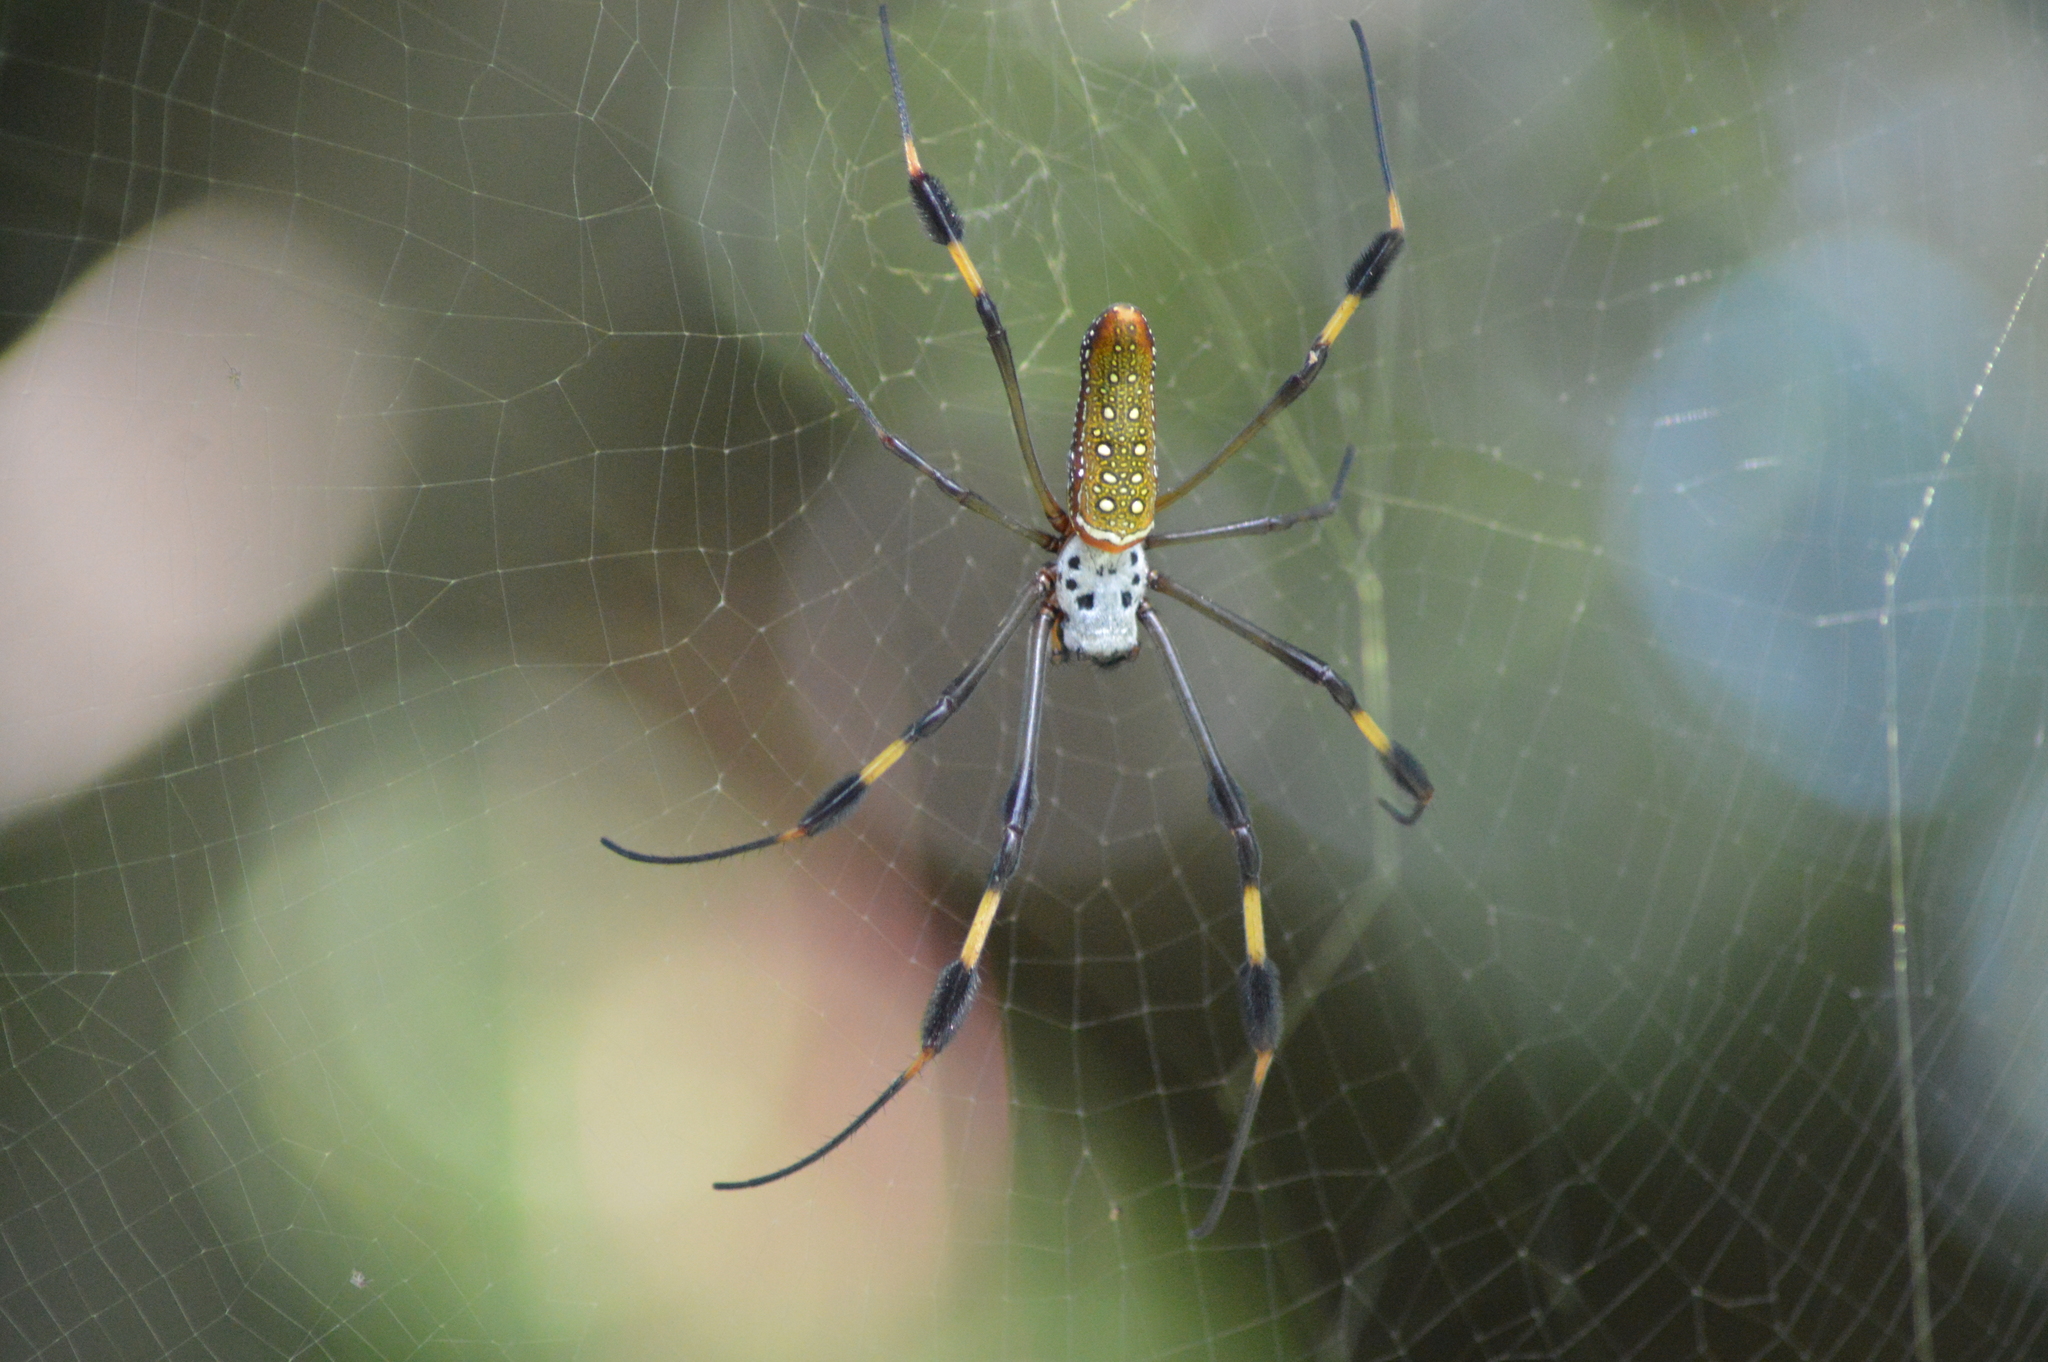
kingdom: Animalia
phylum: Arthropoda
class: Arachnida
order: Araneae
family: Araneidae
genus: Trichonephila
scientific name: Trichonephila clavipes
